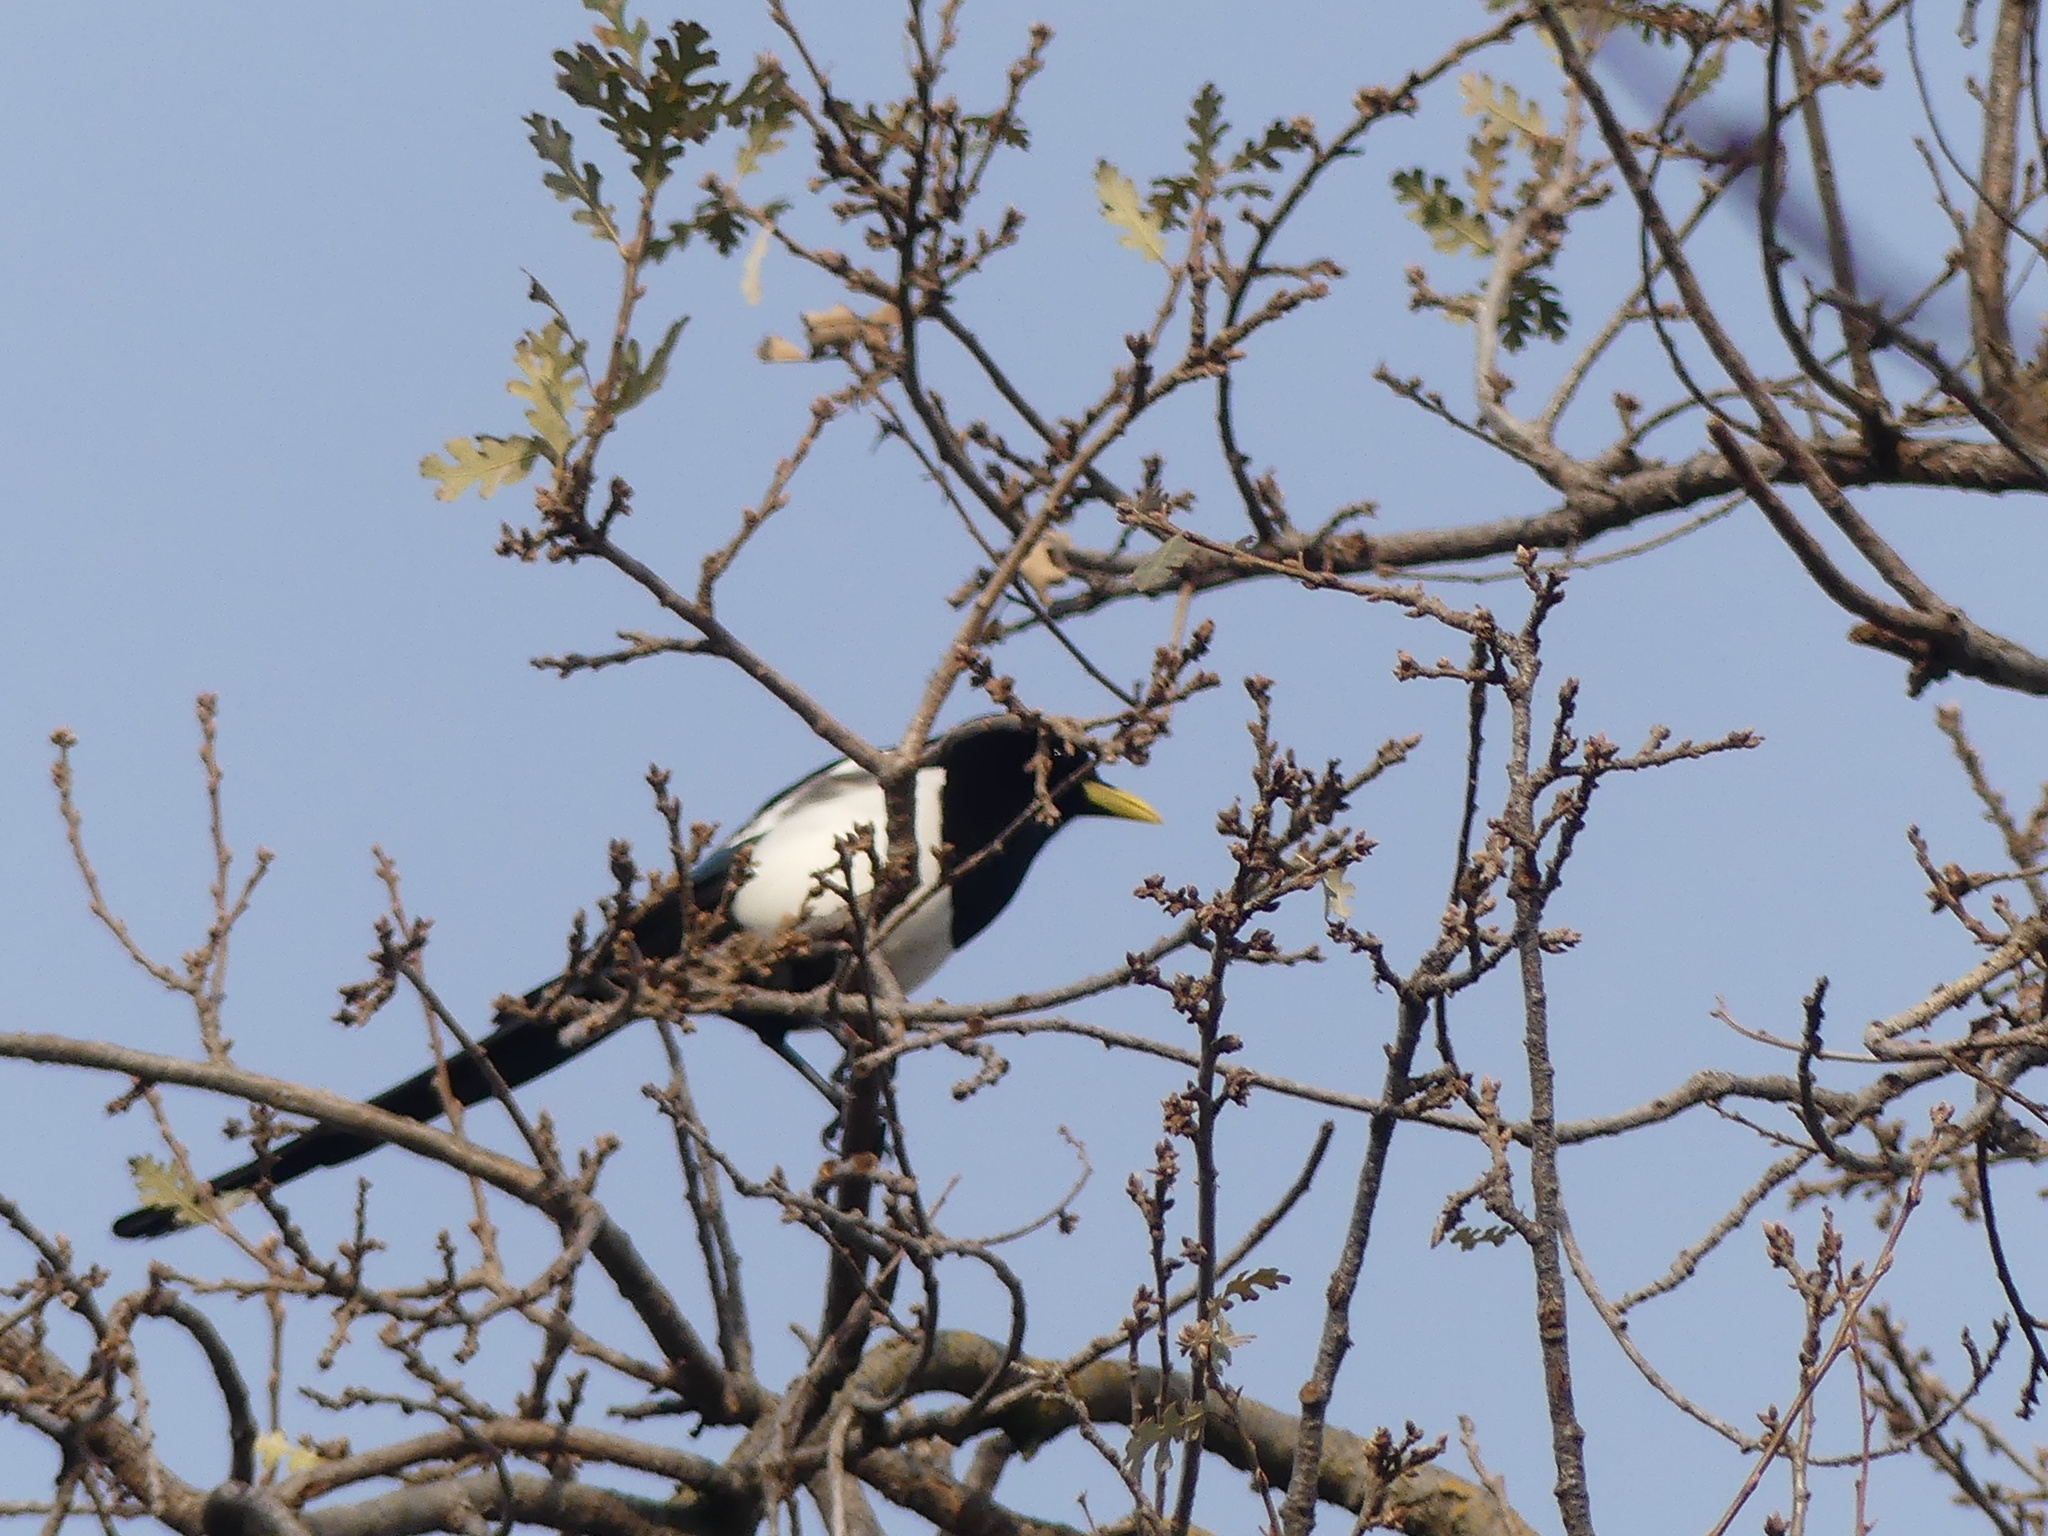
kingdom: Animalia
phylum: Chordata
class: Aves
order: Passeriformes
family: Corvidae
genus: Pica
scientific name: Pica nuttalli
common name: Yellow-billed magpie
